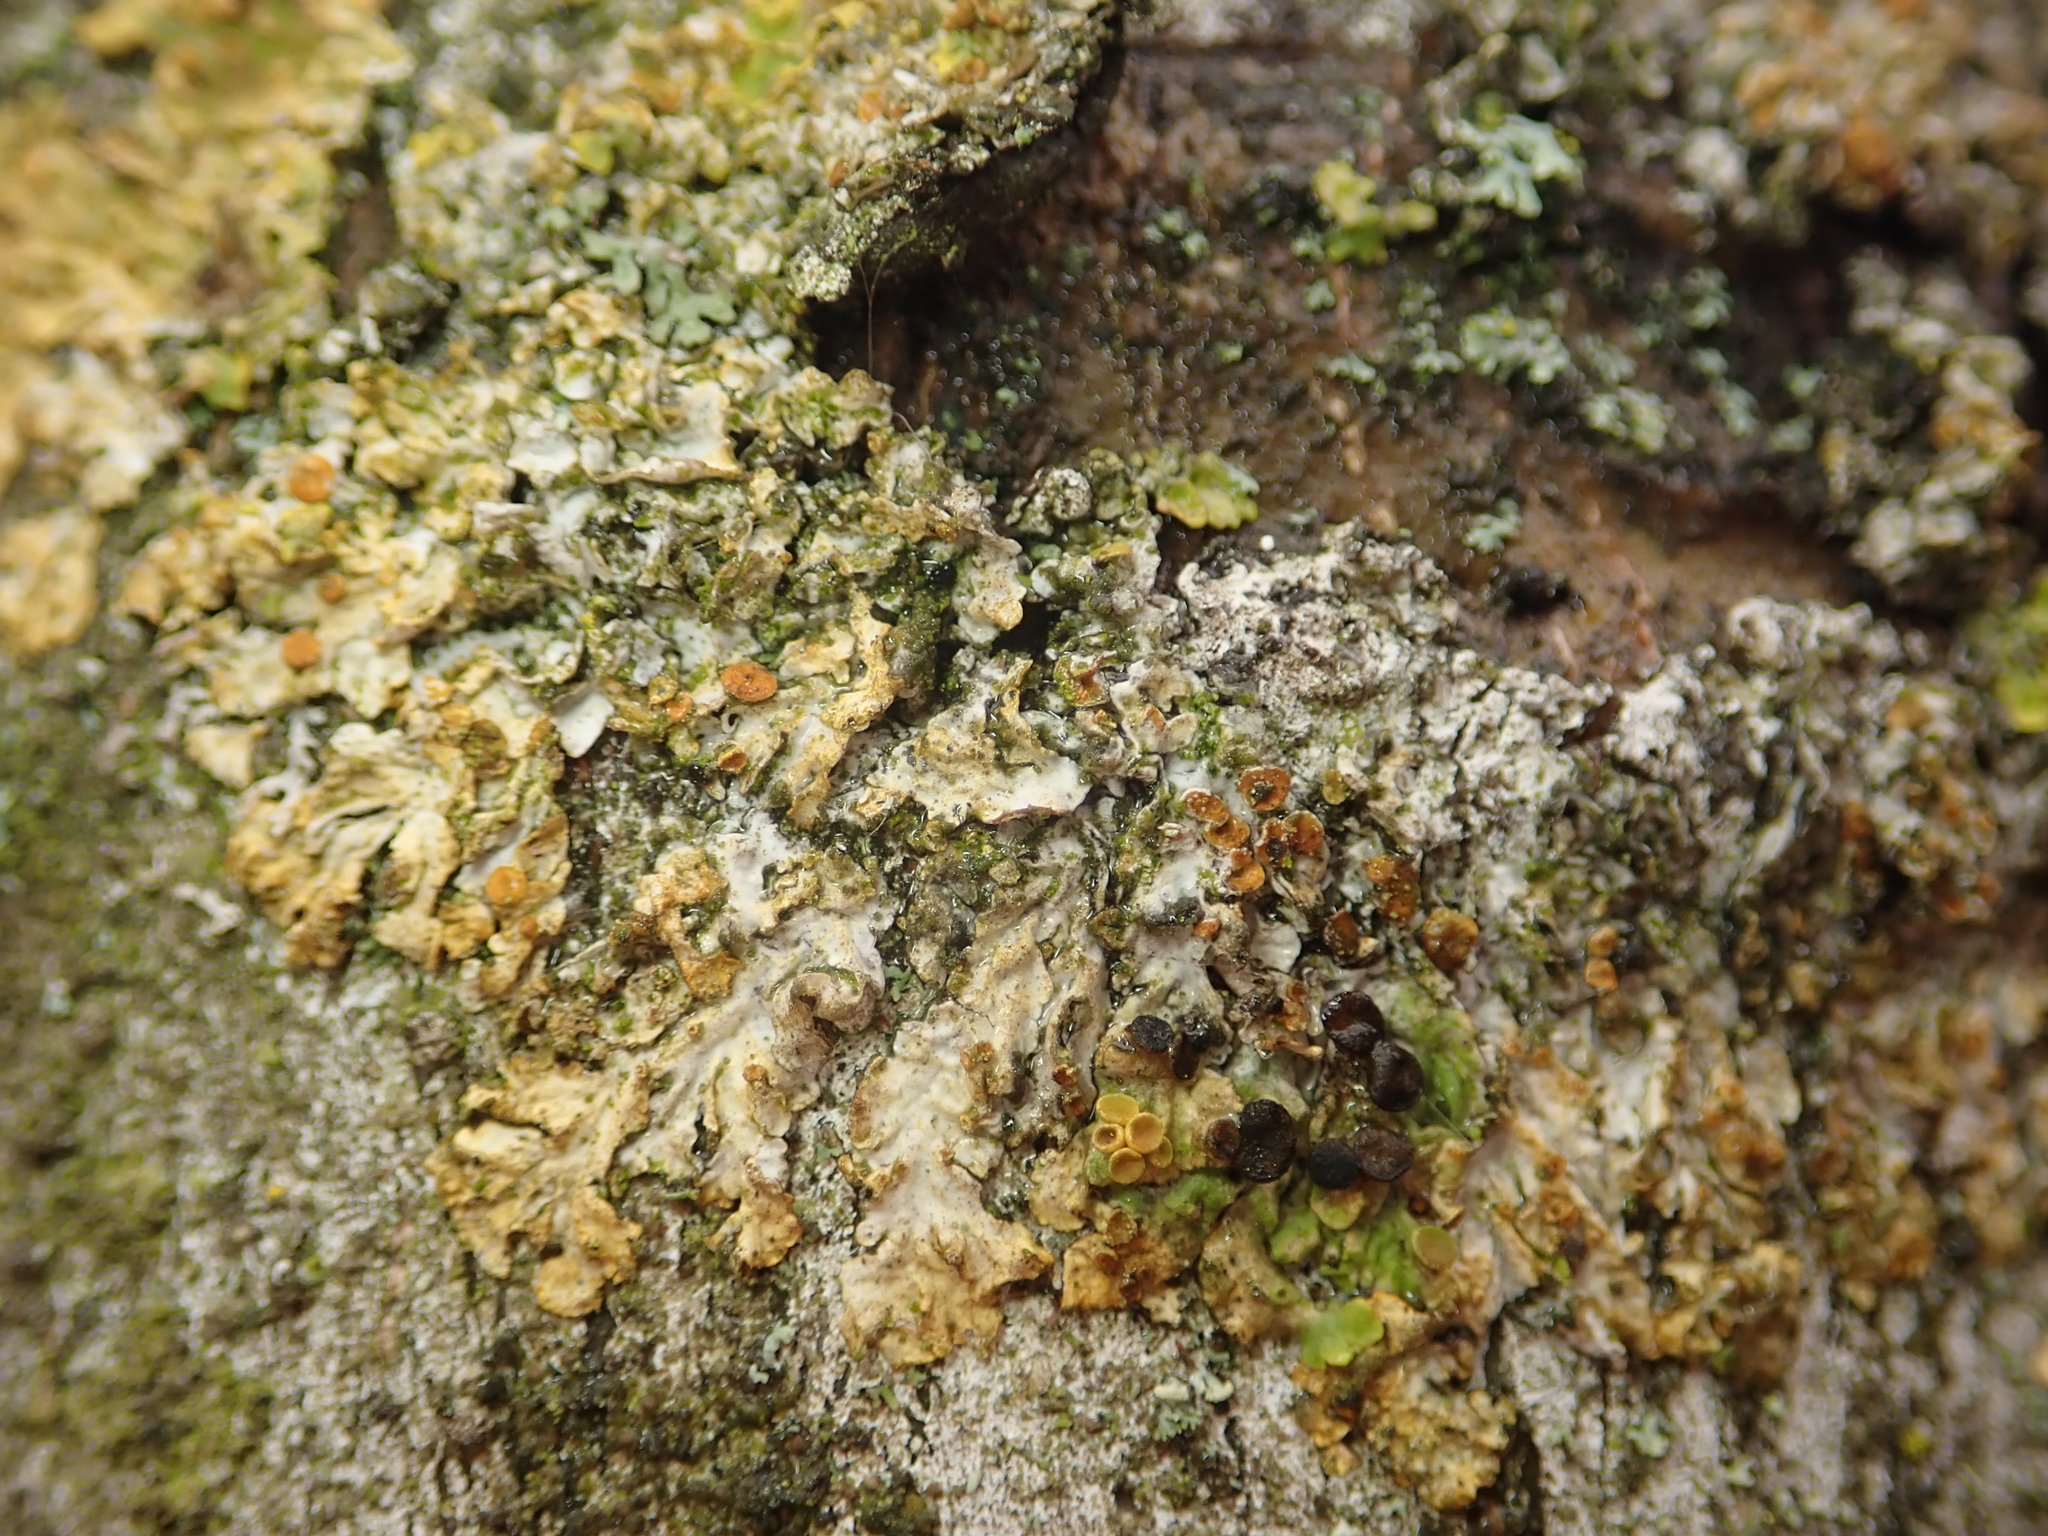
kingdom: Fungi
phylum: Ascomycota
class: Dothideomycetes
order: Mycosphaerellales
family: Teratosphaeriaceae
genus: Xanthoriicola
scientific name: Xanthoriicola physciae
